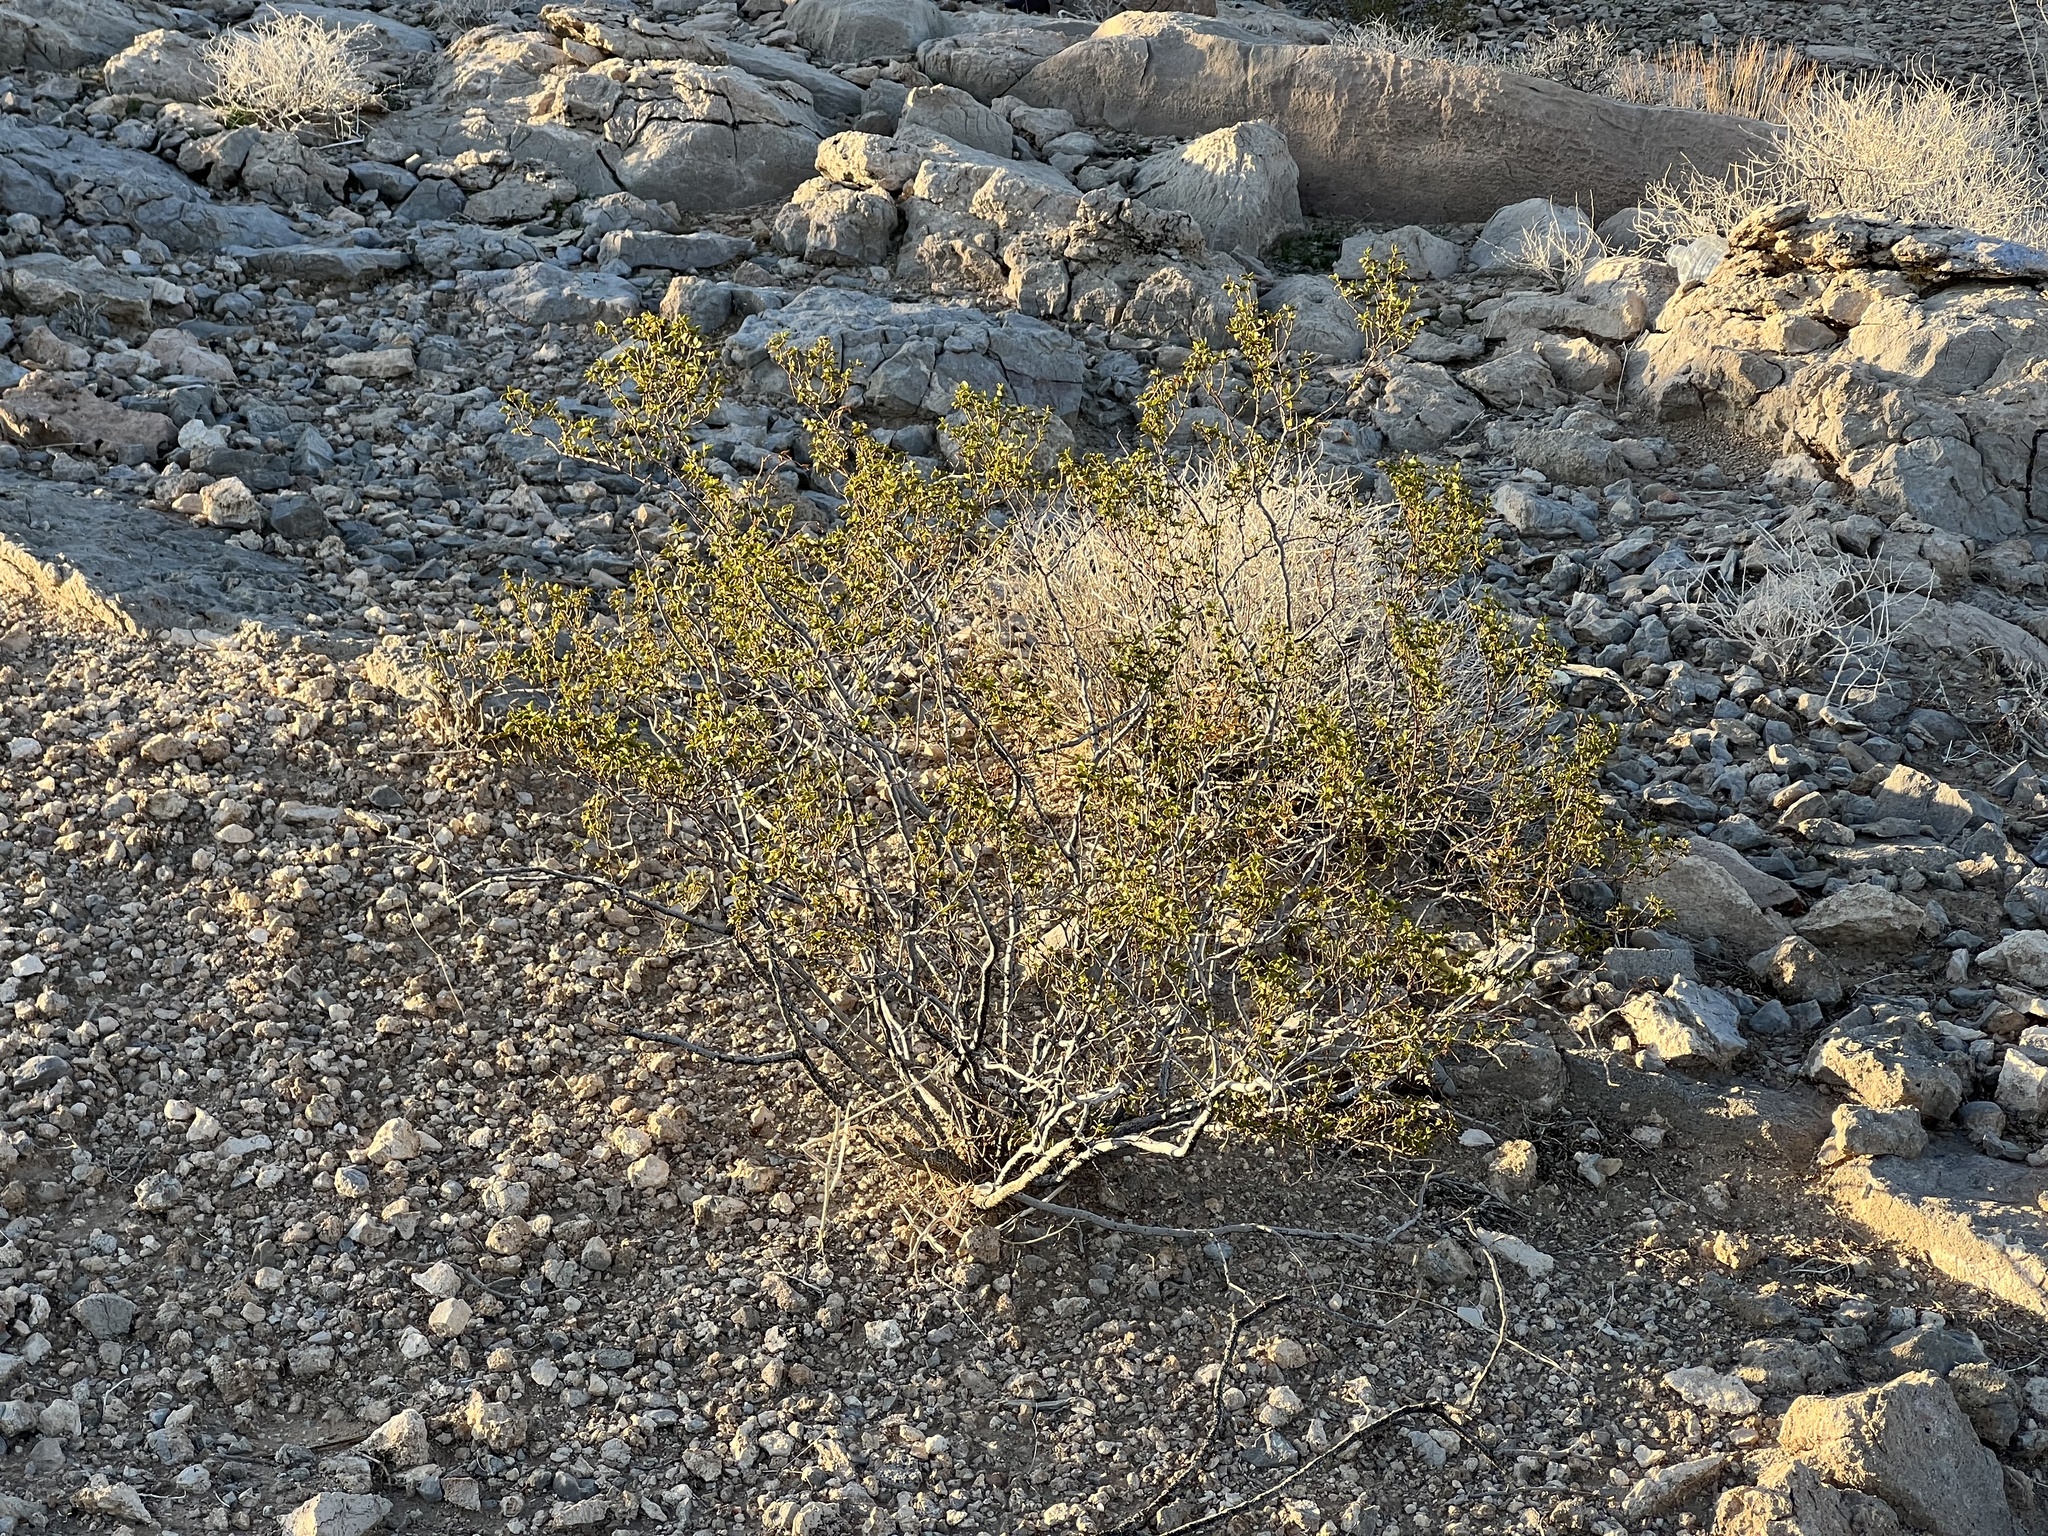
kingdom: Plantae
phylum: Tracheophyta
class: Magnoliopsida
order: Zygophyllales
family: Zygophyllaceae
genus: Larrea
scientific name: Larrea tridentata
